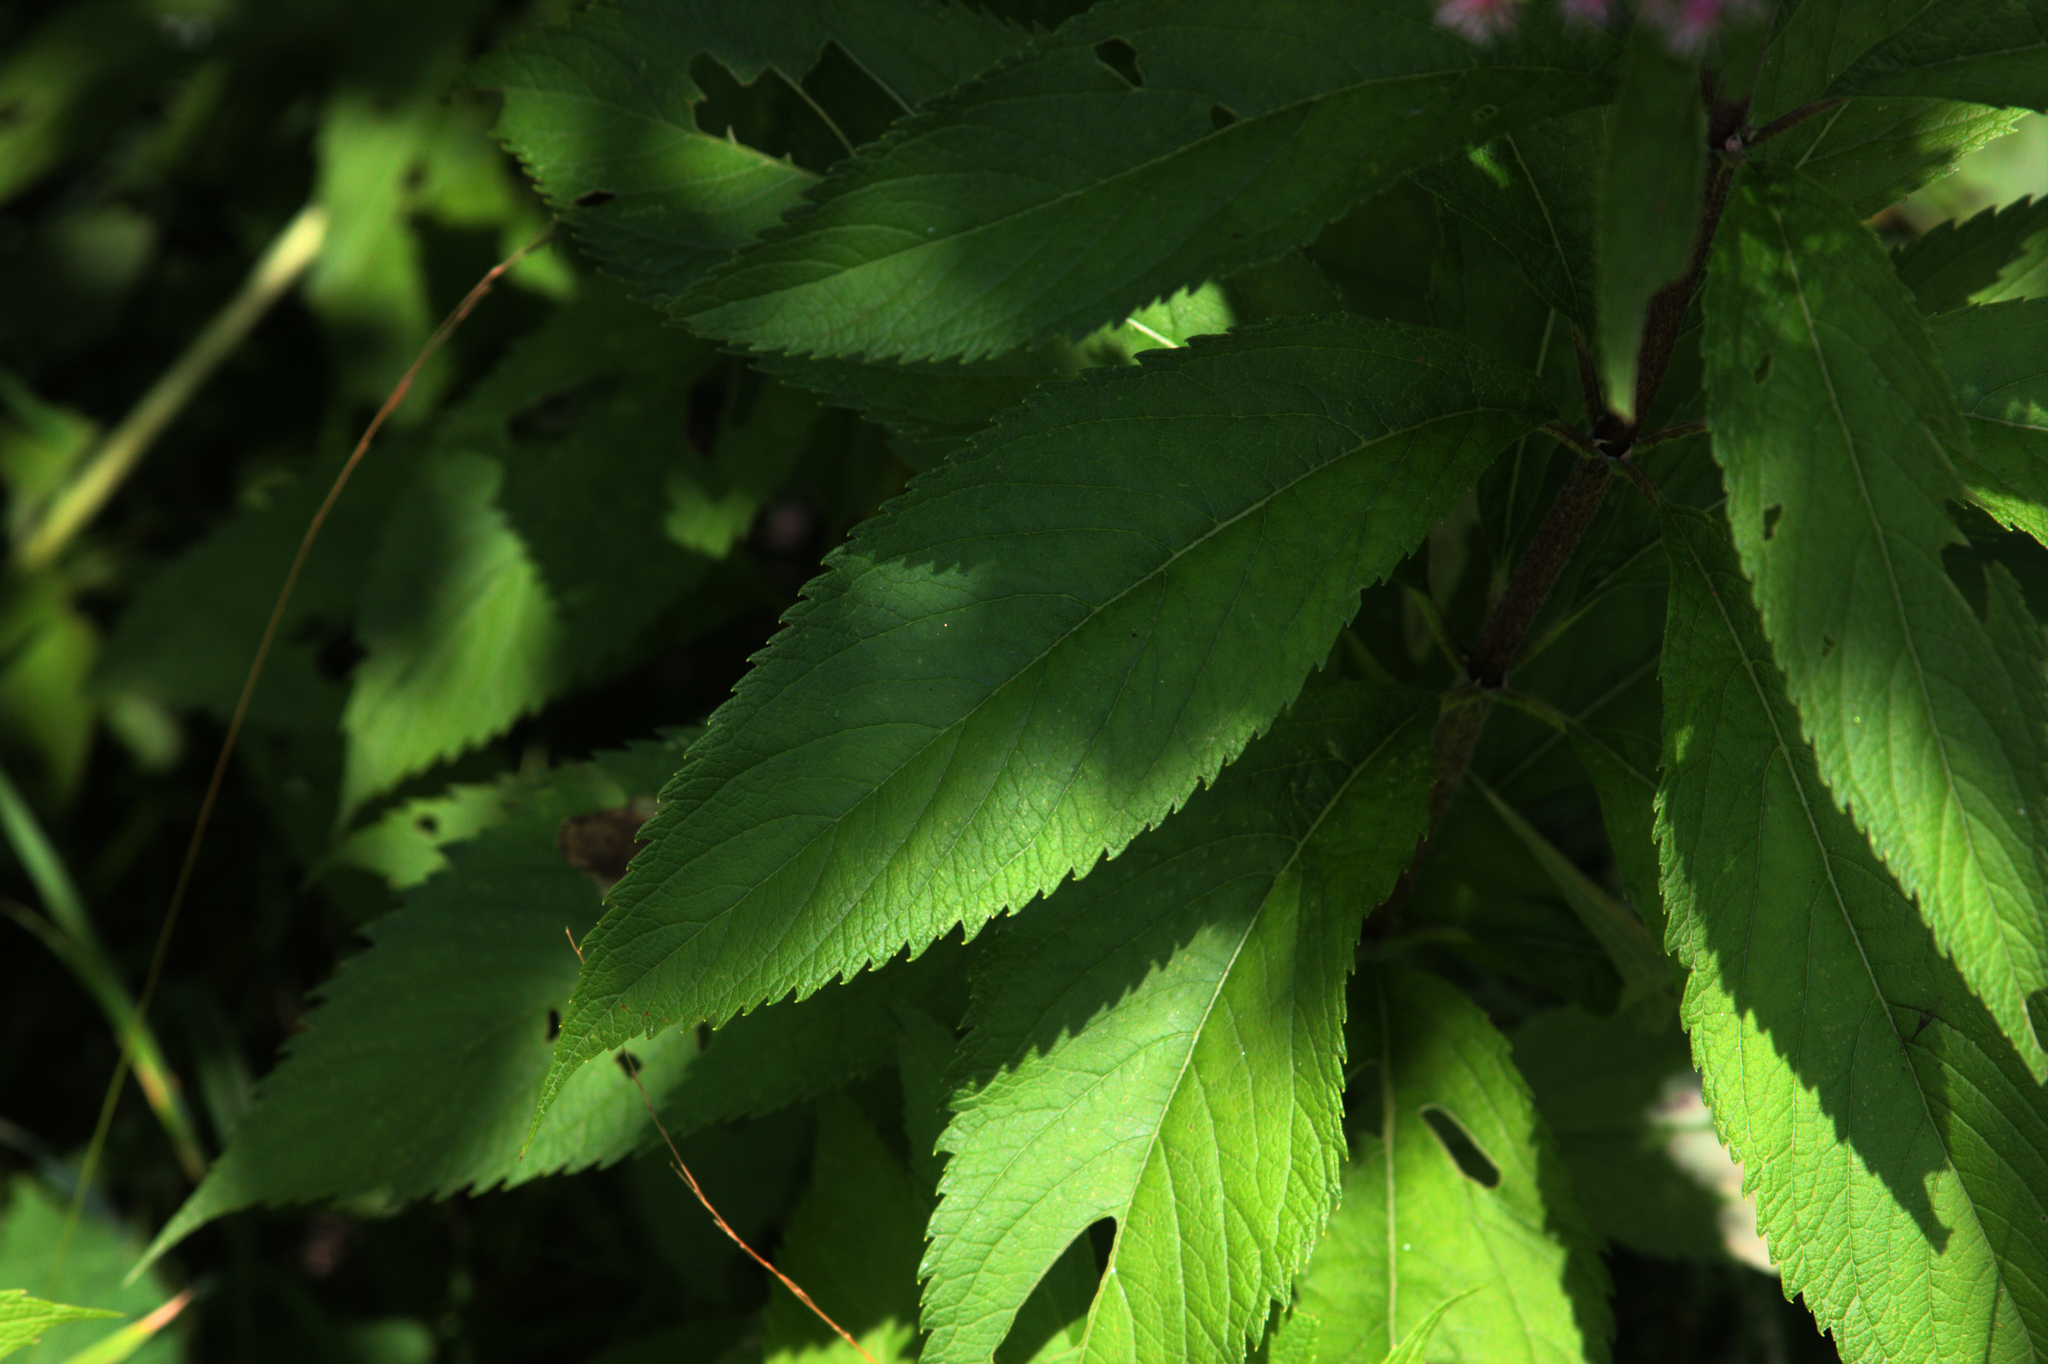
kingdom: Plantae
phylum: Tracheophyta
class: Magnoliopsida
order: Asterales
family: Asteraceae
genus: Eutrochium
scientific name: Eutrochium maculatum
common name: Spotted joe pye weed
